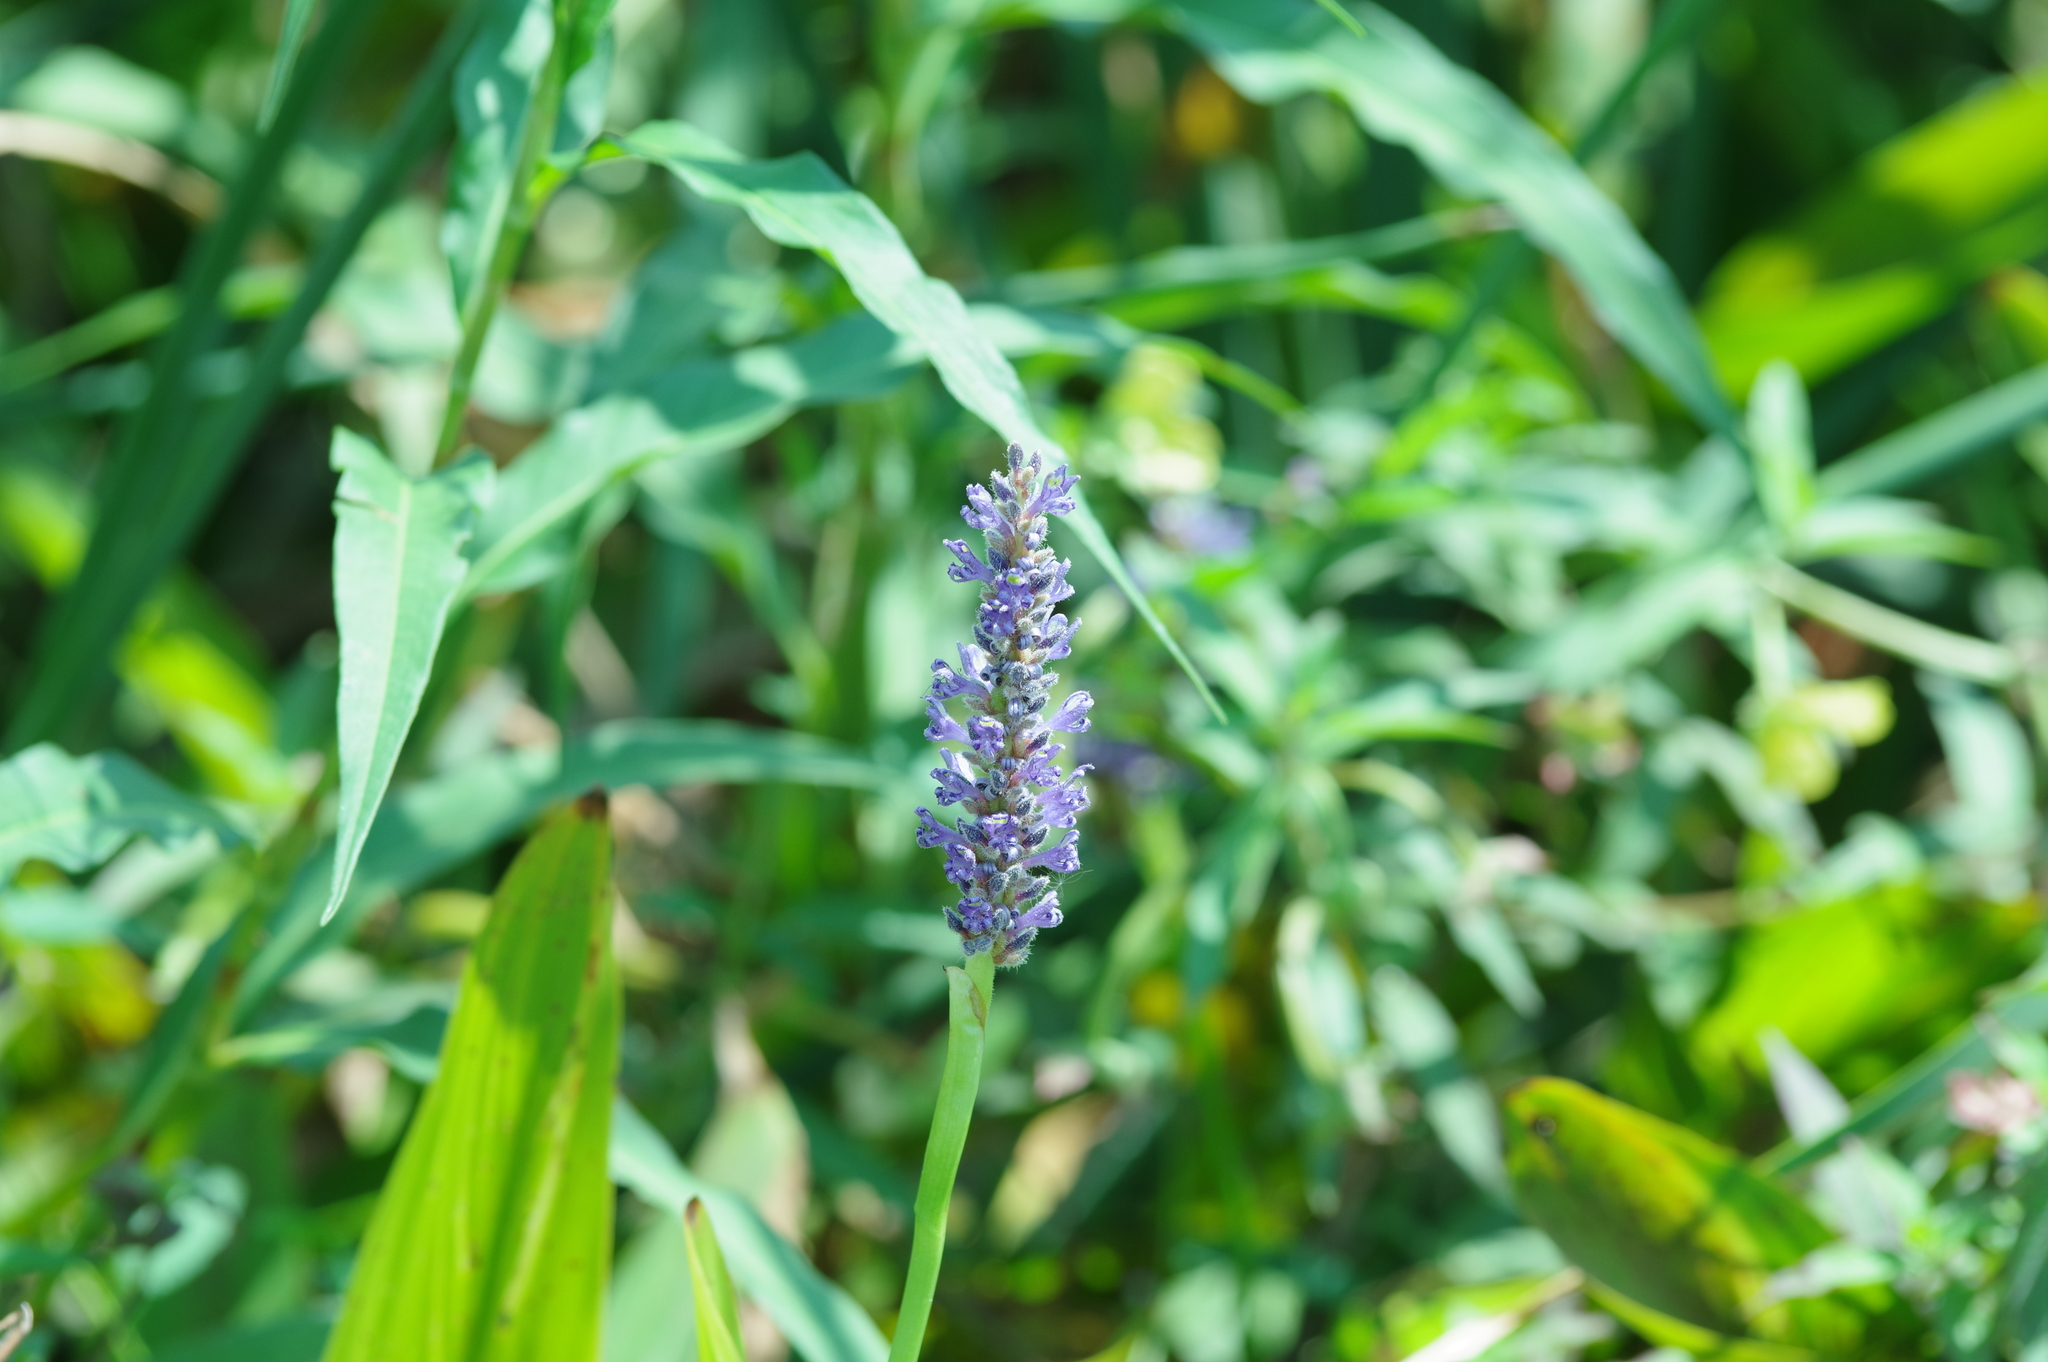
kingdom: Plantae
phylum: Tracheophyta
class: Liliopsida
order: Commelinales
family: Pontederiaceae
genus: Pontederia
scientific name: Pontederia cordata
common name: Pickerelweed
